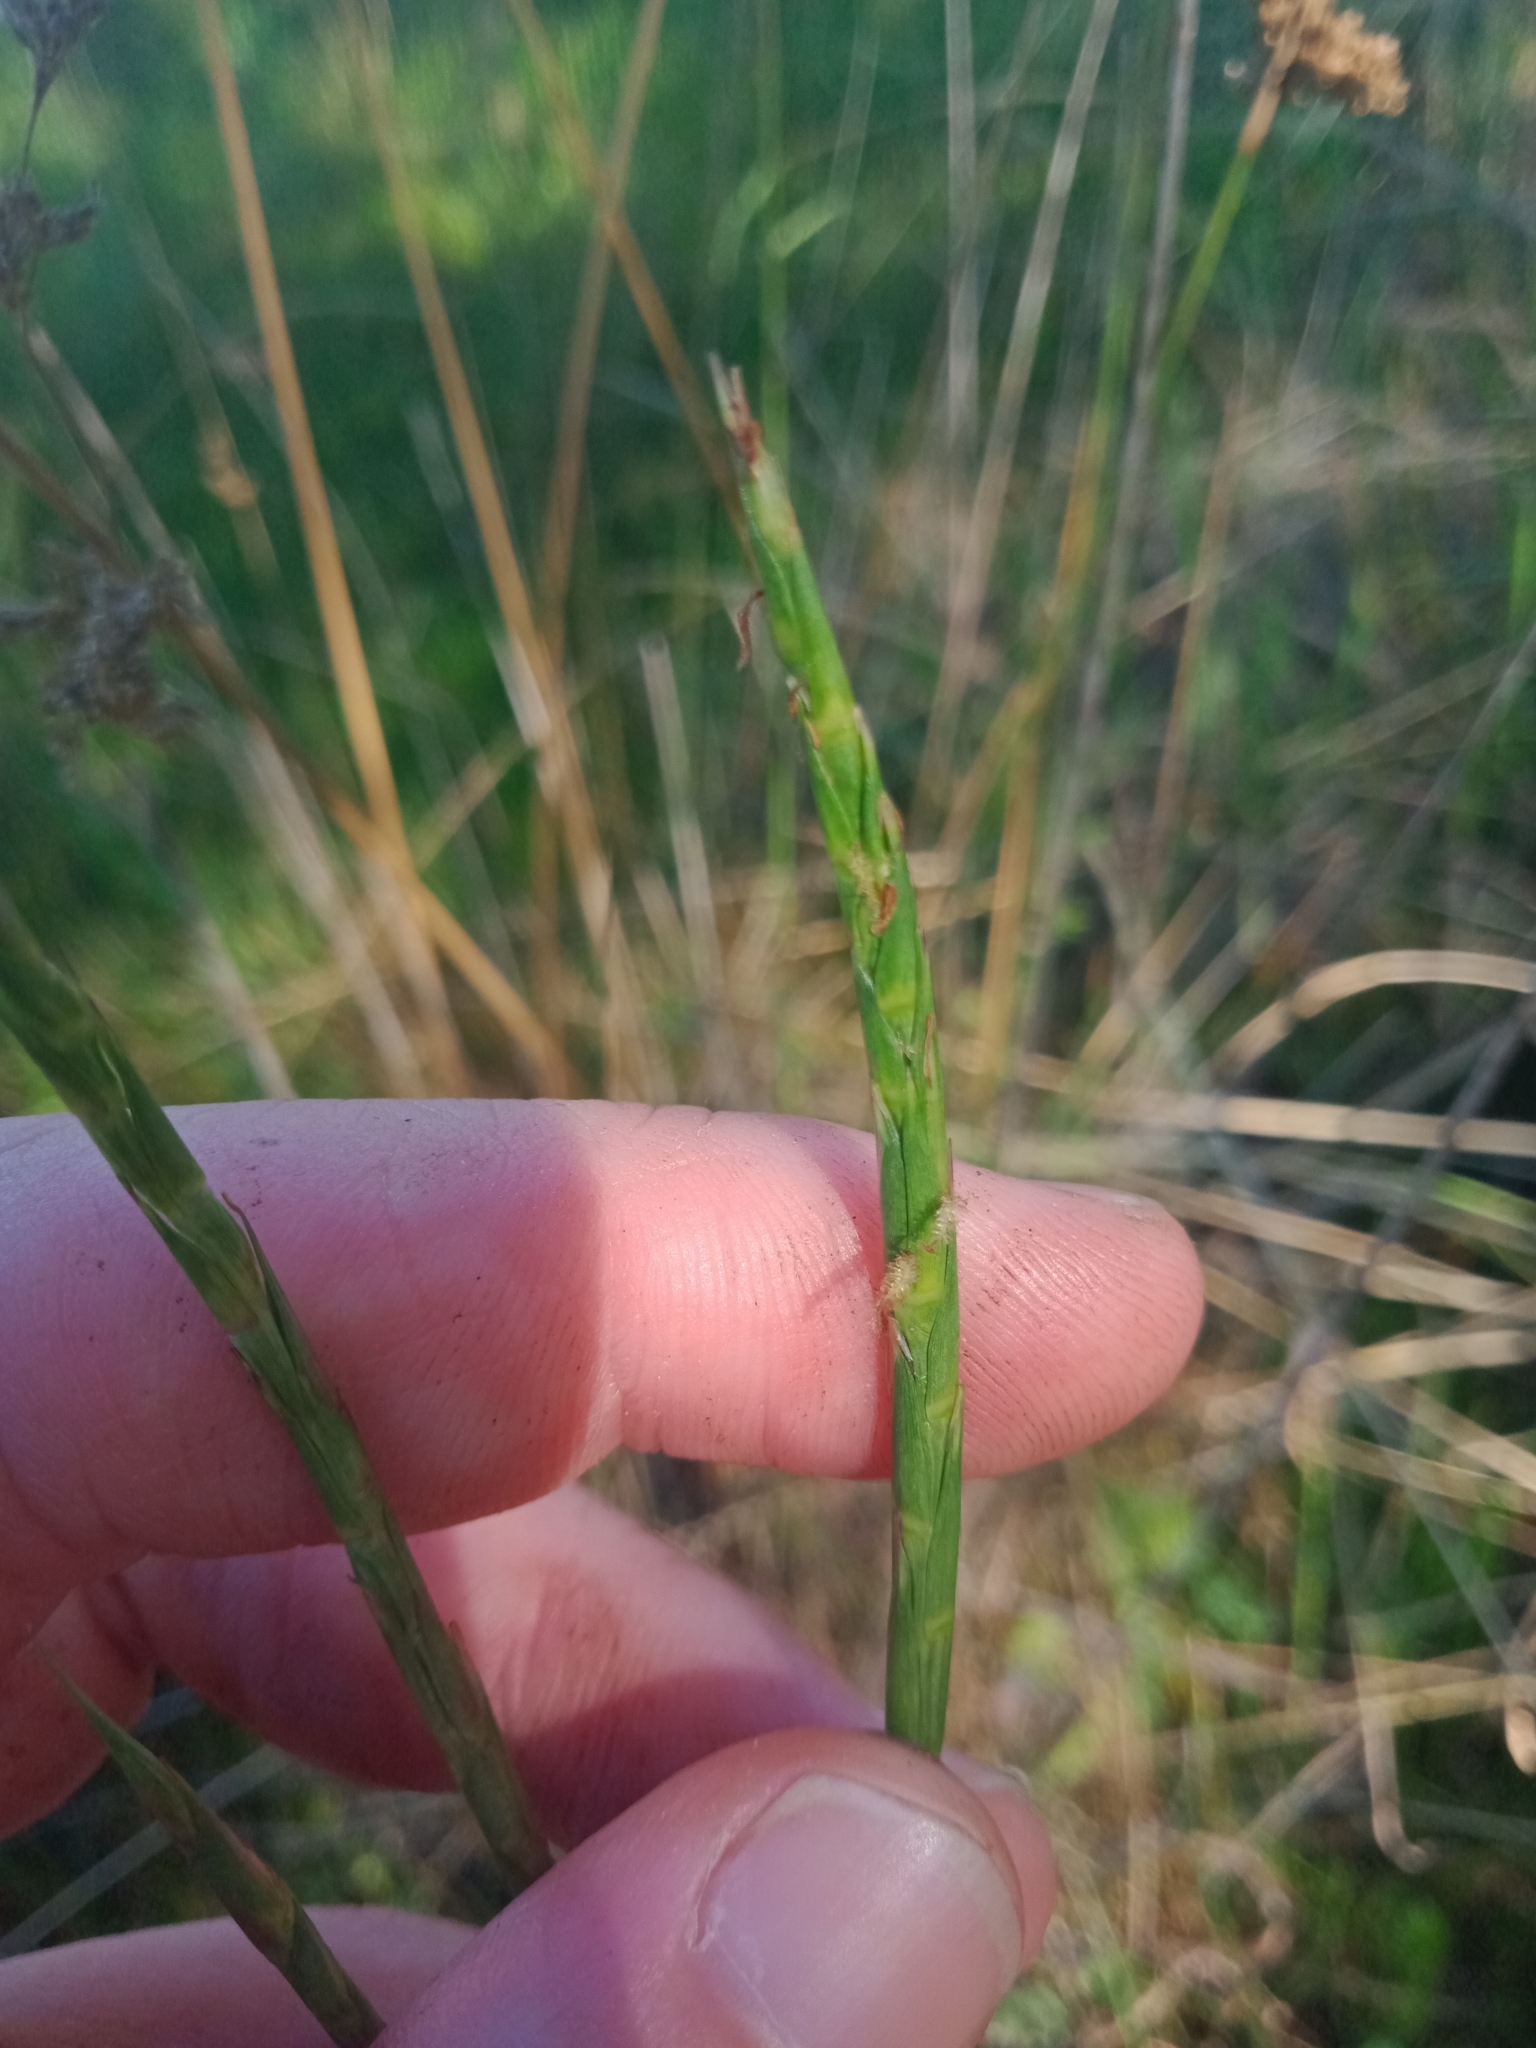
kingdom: Plantae
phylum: Tracheophyta
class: Liliopsida
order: Poales
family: Poaceae
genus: Hemarthria
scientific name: Hemarthria uncinata
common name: Matgrass
